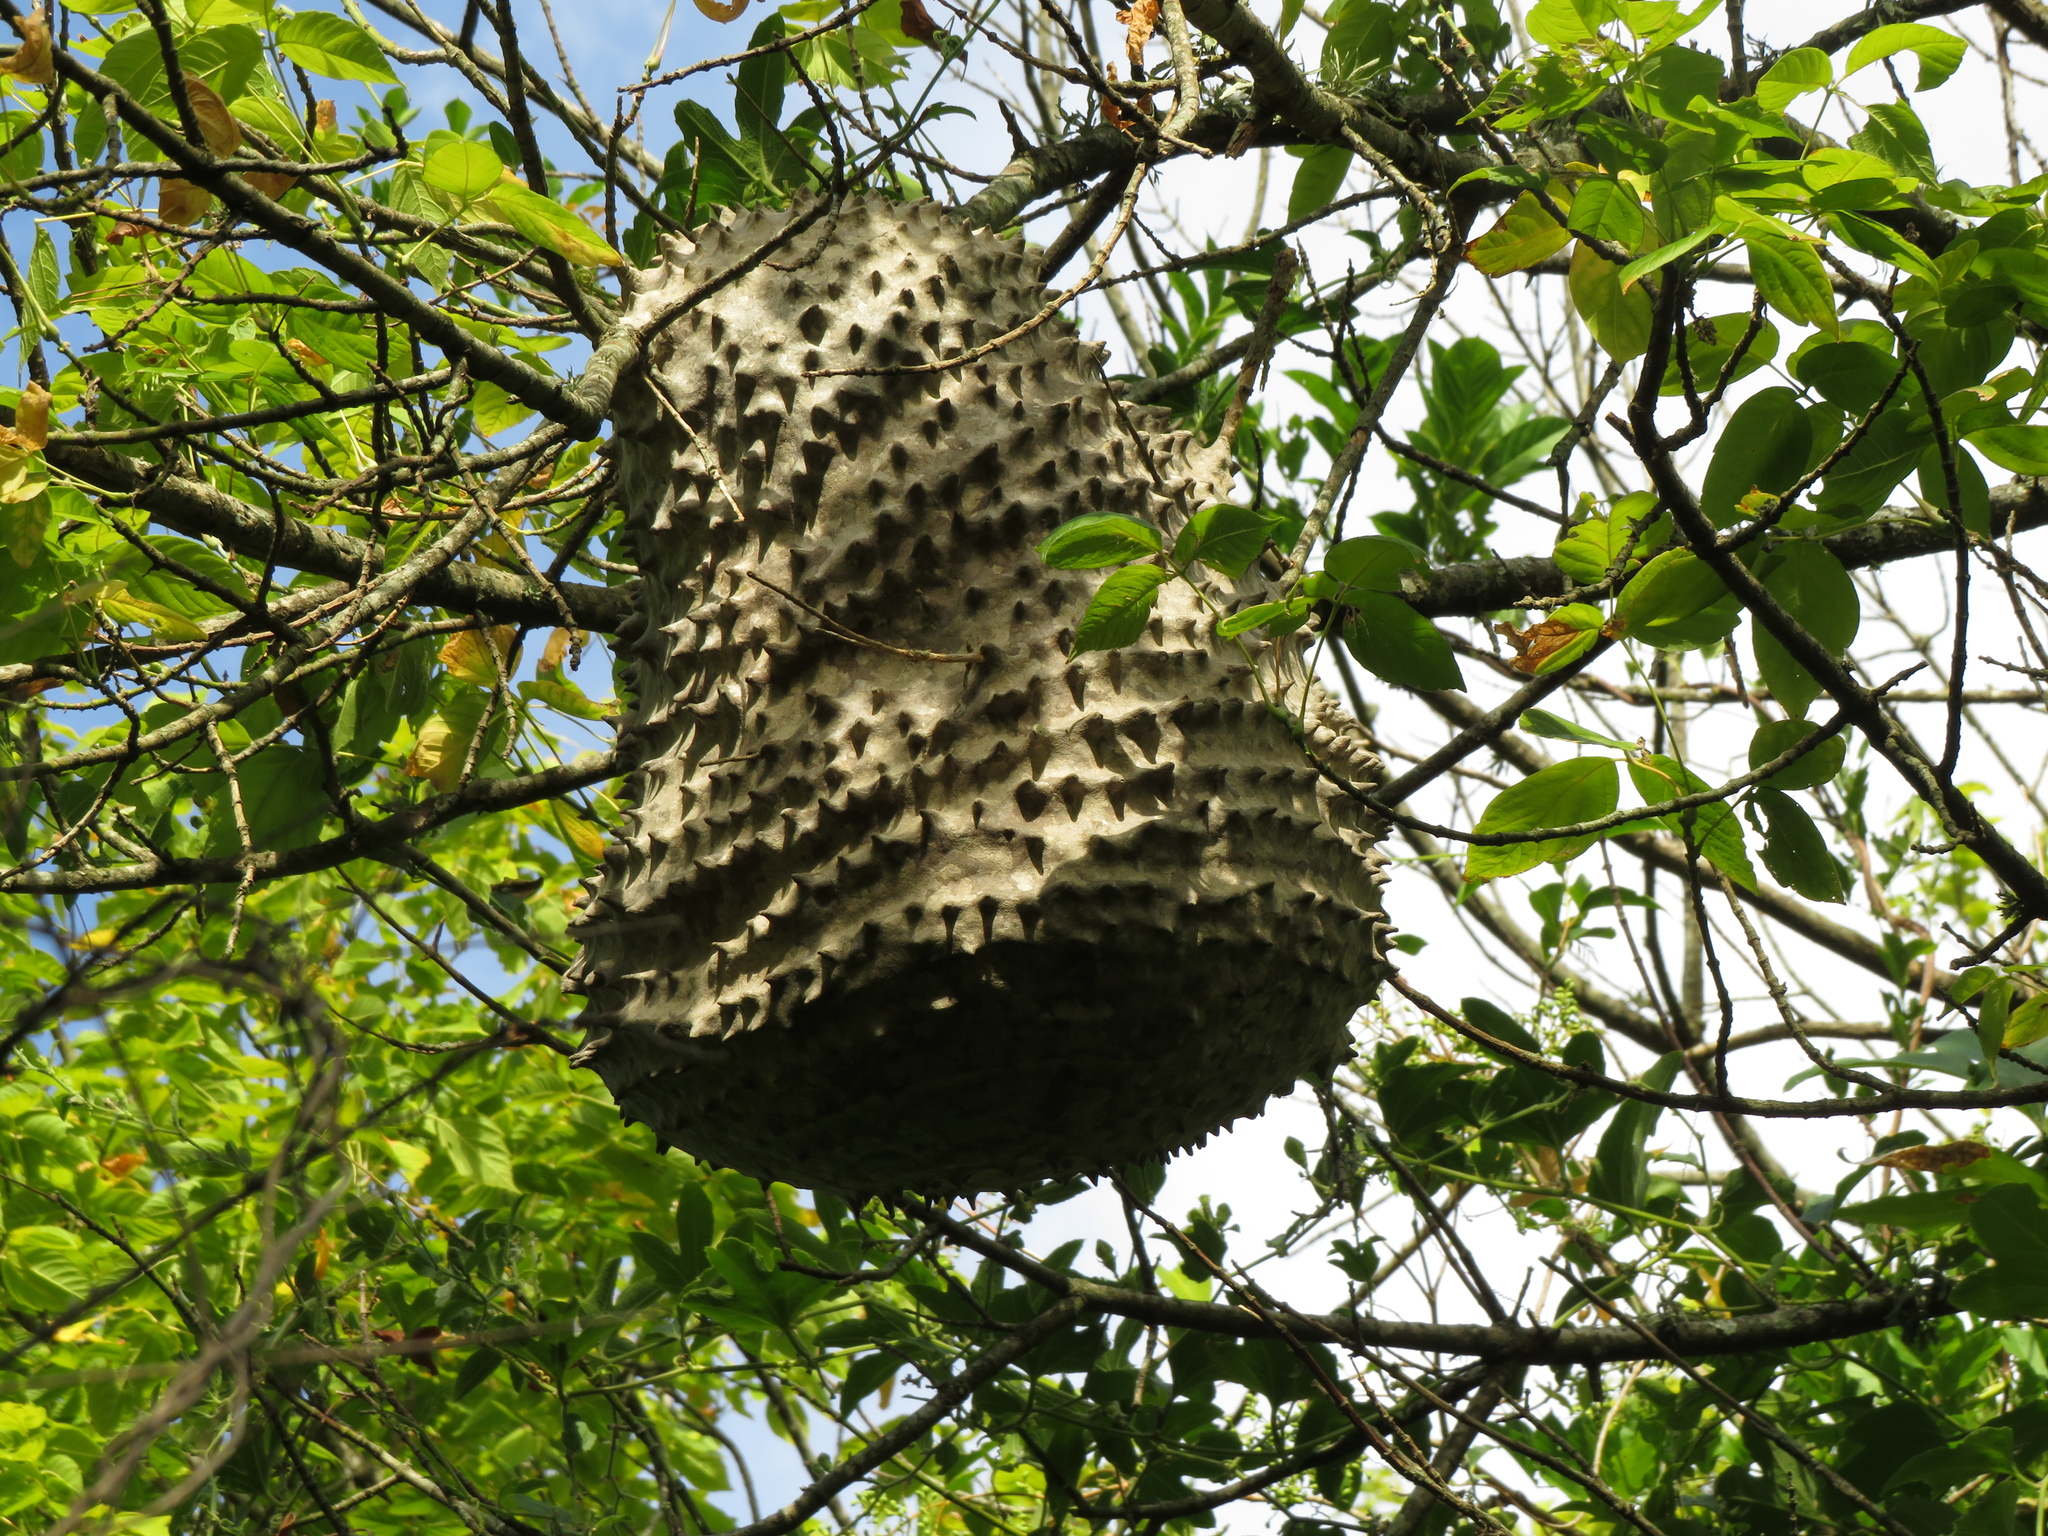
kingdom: Animalia
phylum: Arthropoda
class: Insecta
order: Hymenoptera
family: Eumenidae
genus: Polybia
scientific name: Polybia scutellaris
